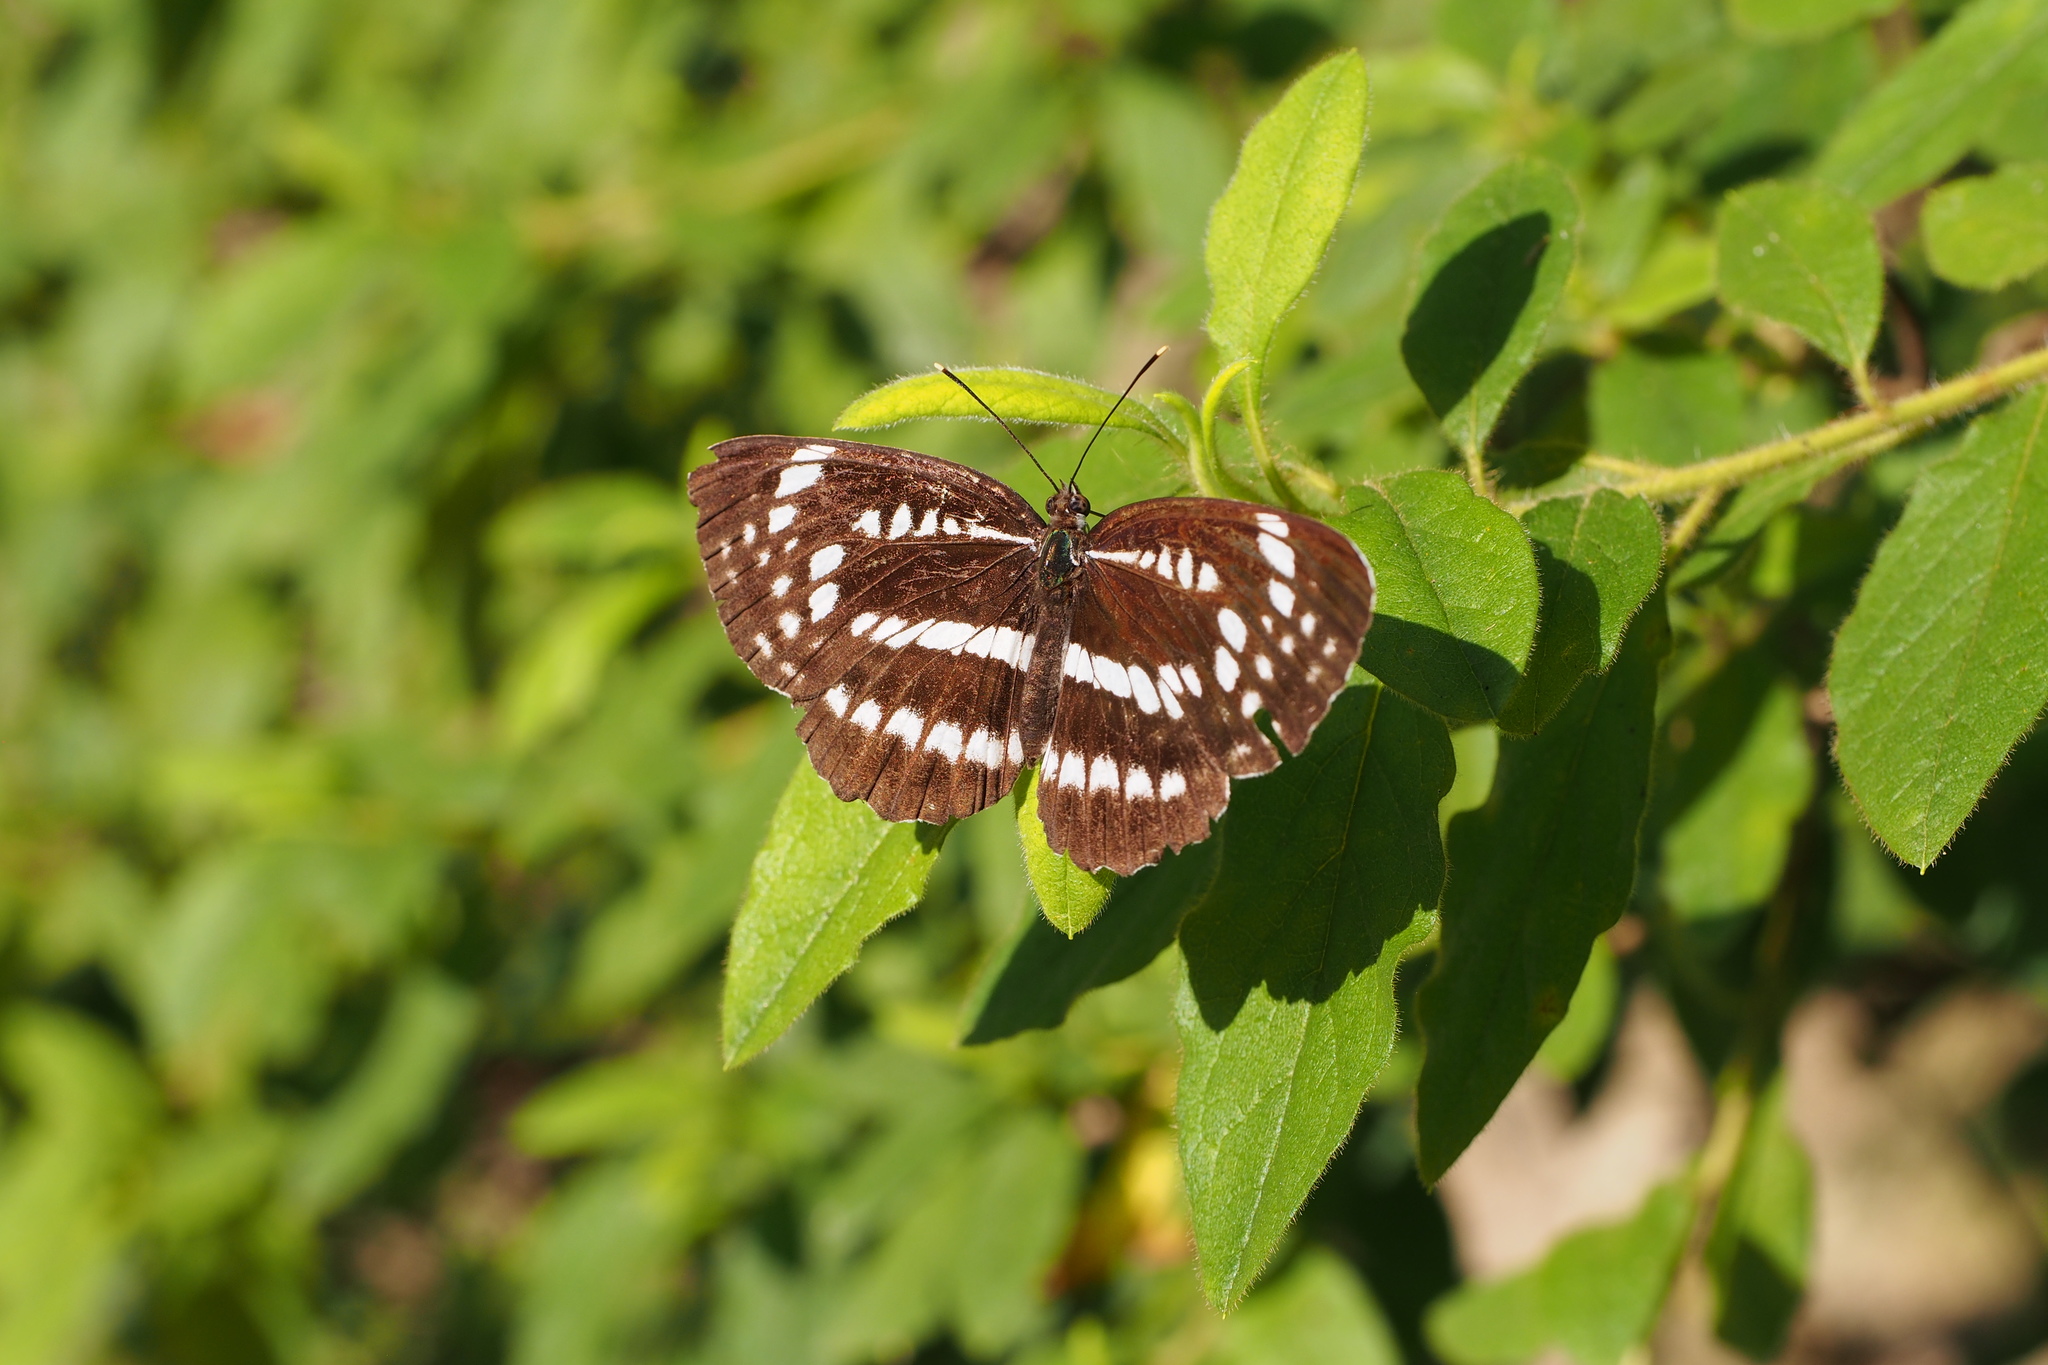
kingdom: Animalia
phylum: Arthropoda
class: Insecta
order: Lepidoptera
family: Nymphalidae
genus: Neptis
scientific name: Neptis pryeri
